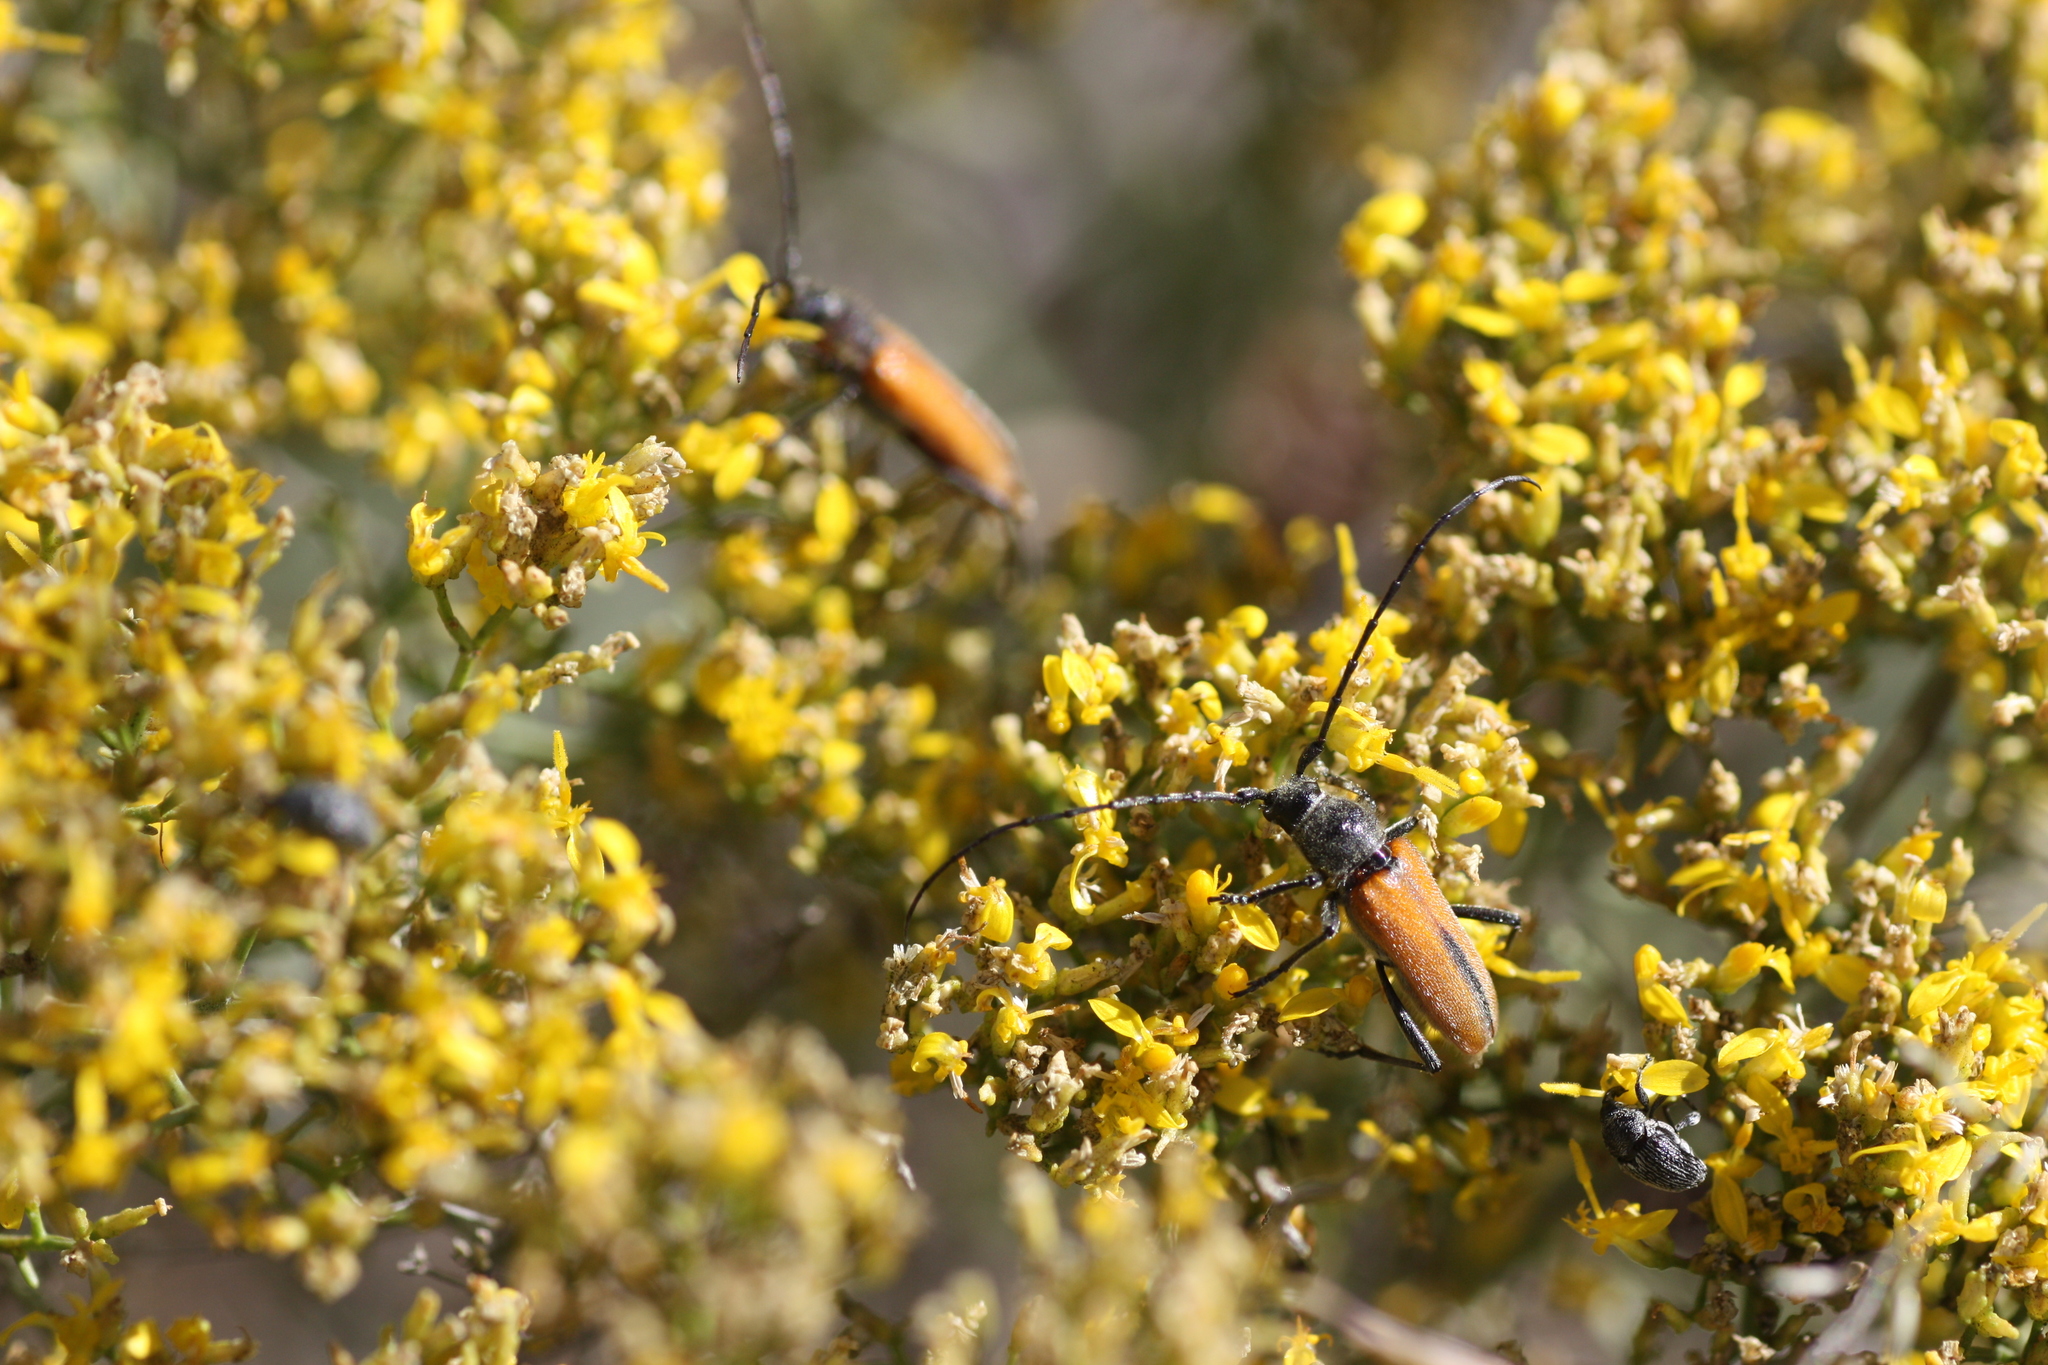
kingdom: Animalia
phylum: Arthropoda
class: Insecta
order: Coleoptera
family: Cerambycidae
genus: Crossidius
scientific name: Crossidius pulchellus
